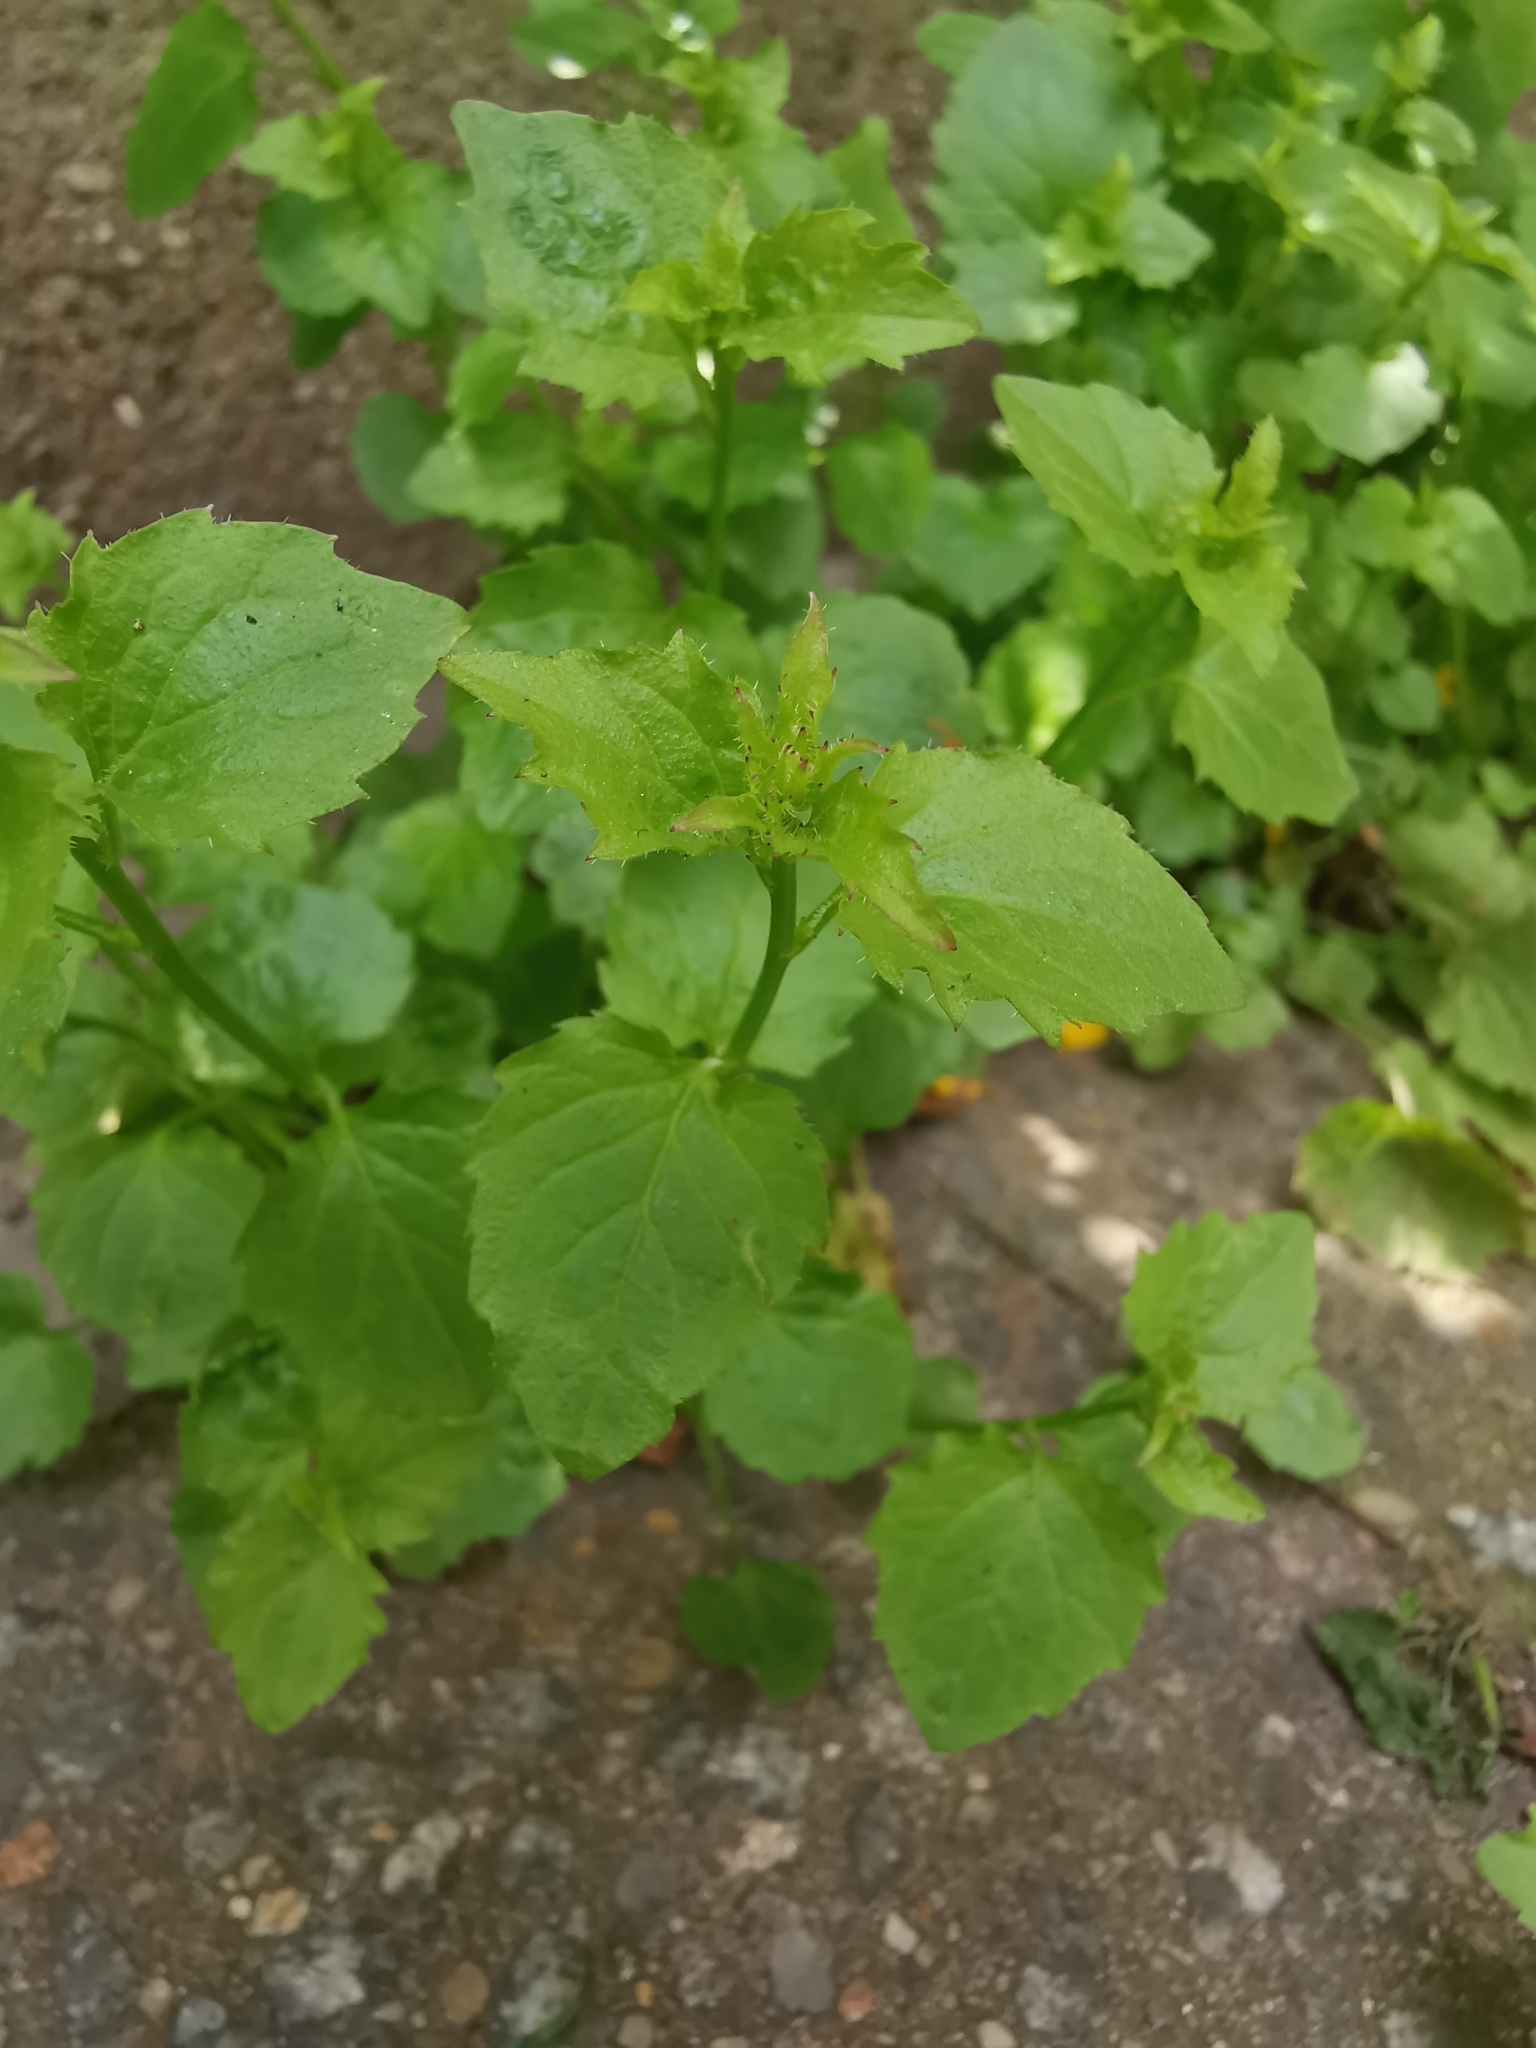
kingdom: Plantae
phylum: Tracheophyta
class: Magnoliopsida
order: Asterales
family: Campanulaceae
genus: Campanula
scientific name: Campanula poscharskyana
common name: Trailing bellflower
